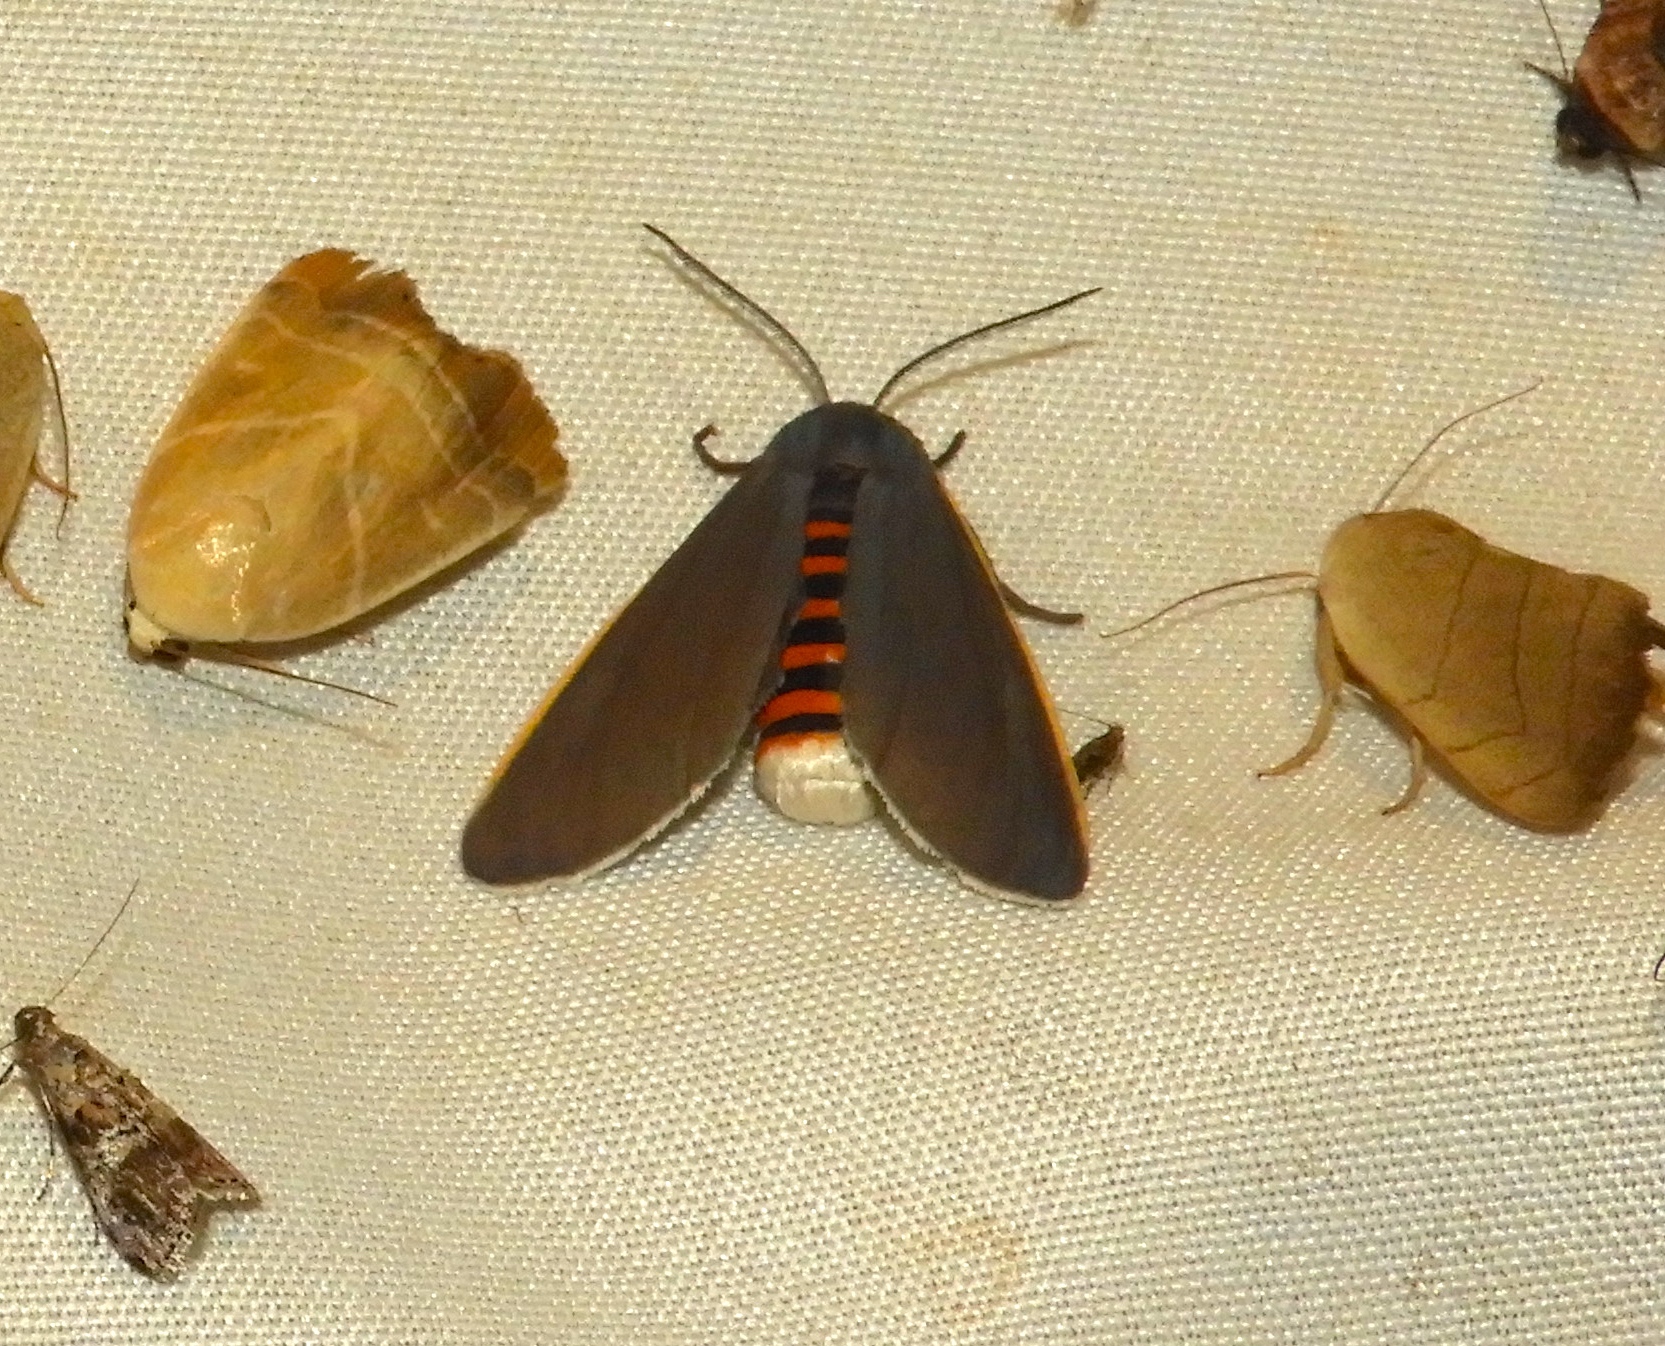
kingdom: Animalia
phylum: Arthropoda
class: Insecta
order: Lepidoptera
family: Erebidae
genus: Euchaetes
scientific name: Euchaetes antica
